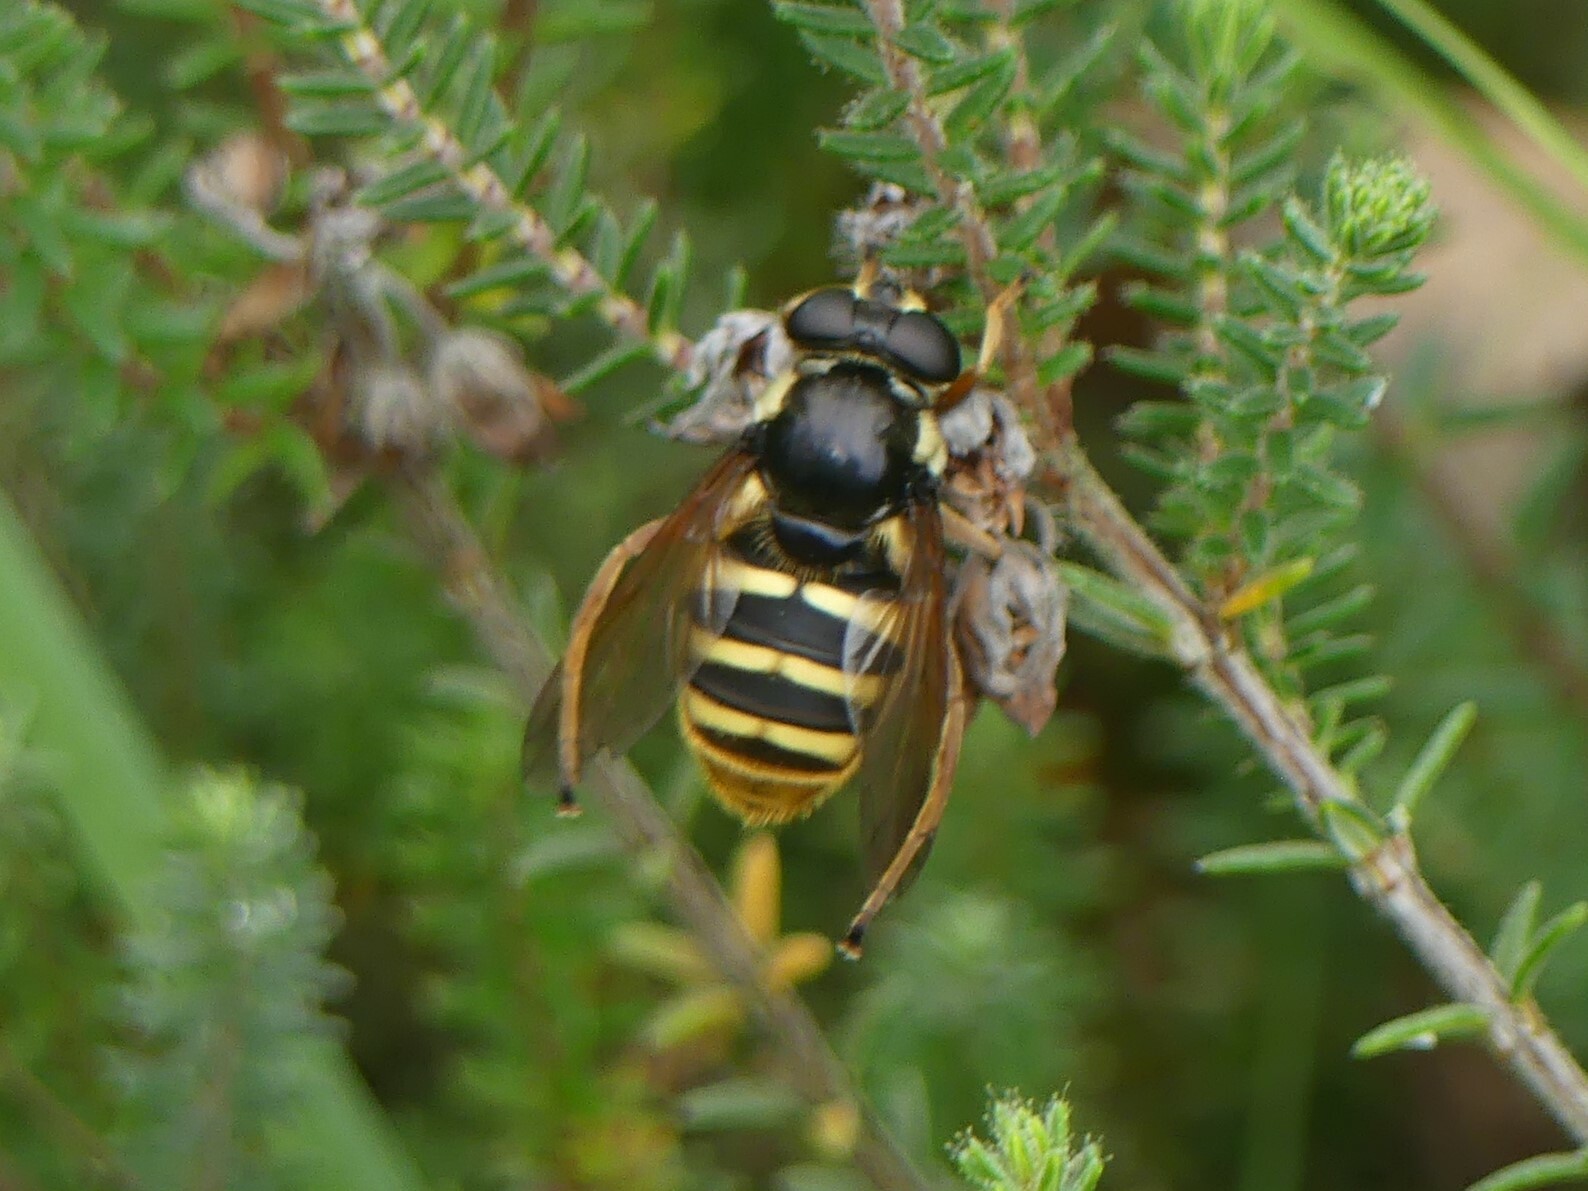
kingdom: Animalia
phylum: Arthropoda
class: Insecta
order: Diptera
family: Syrphidae
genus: Sericomyia
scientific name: Sericomyia silentis
